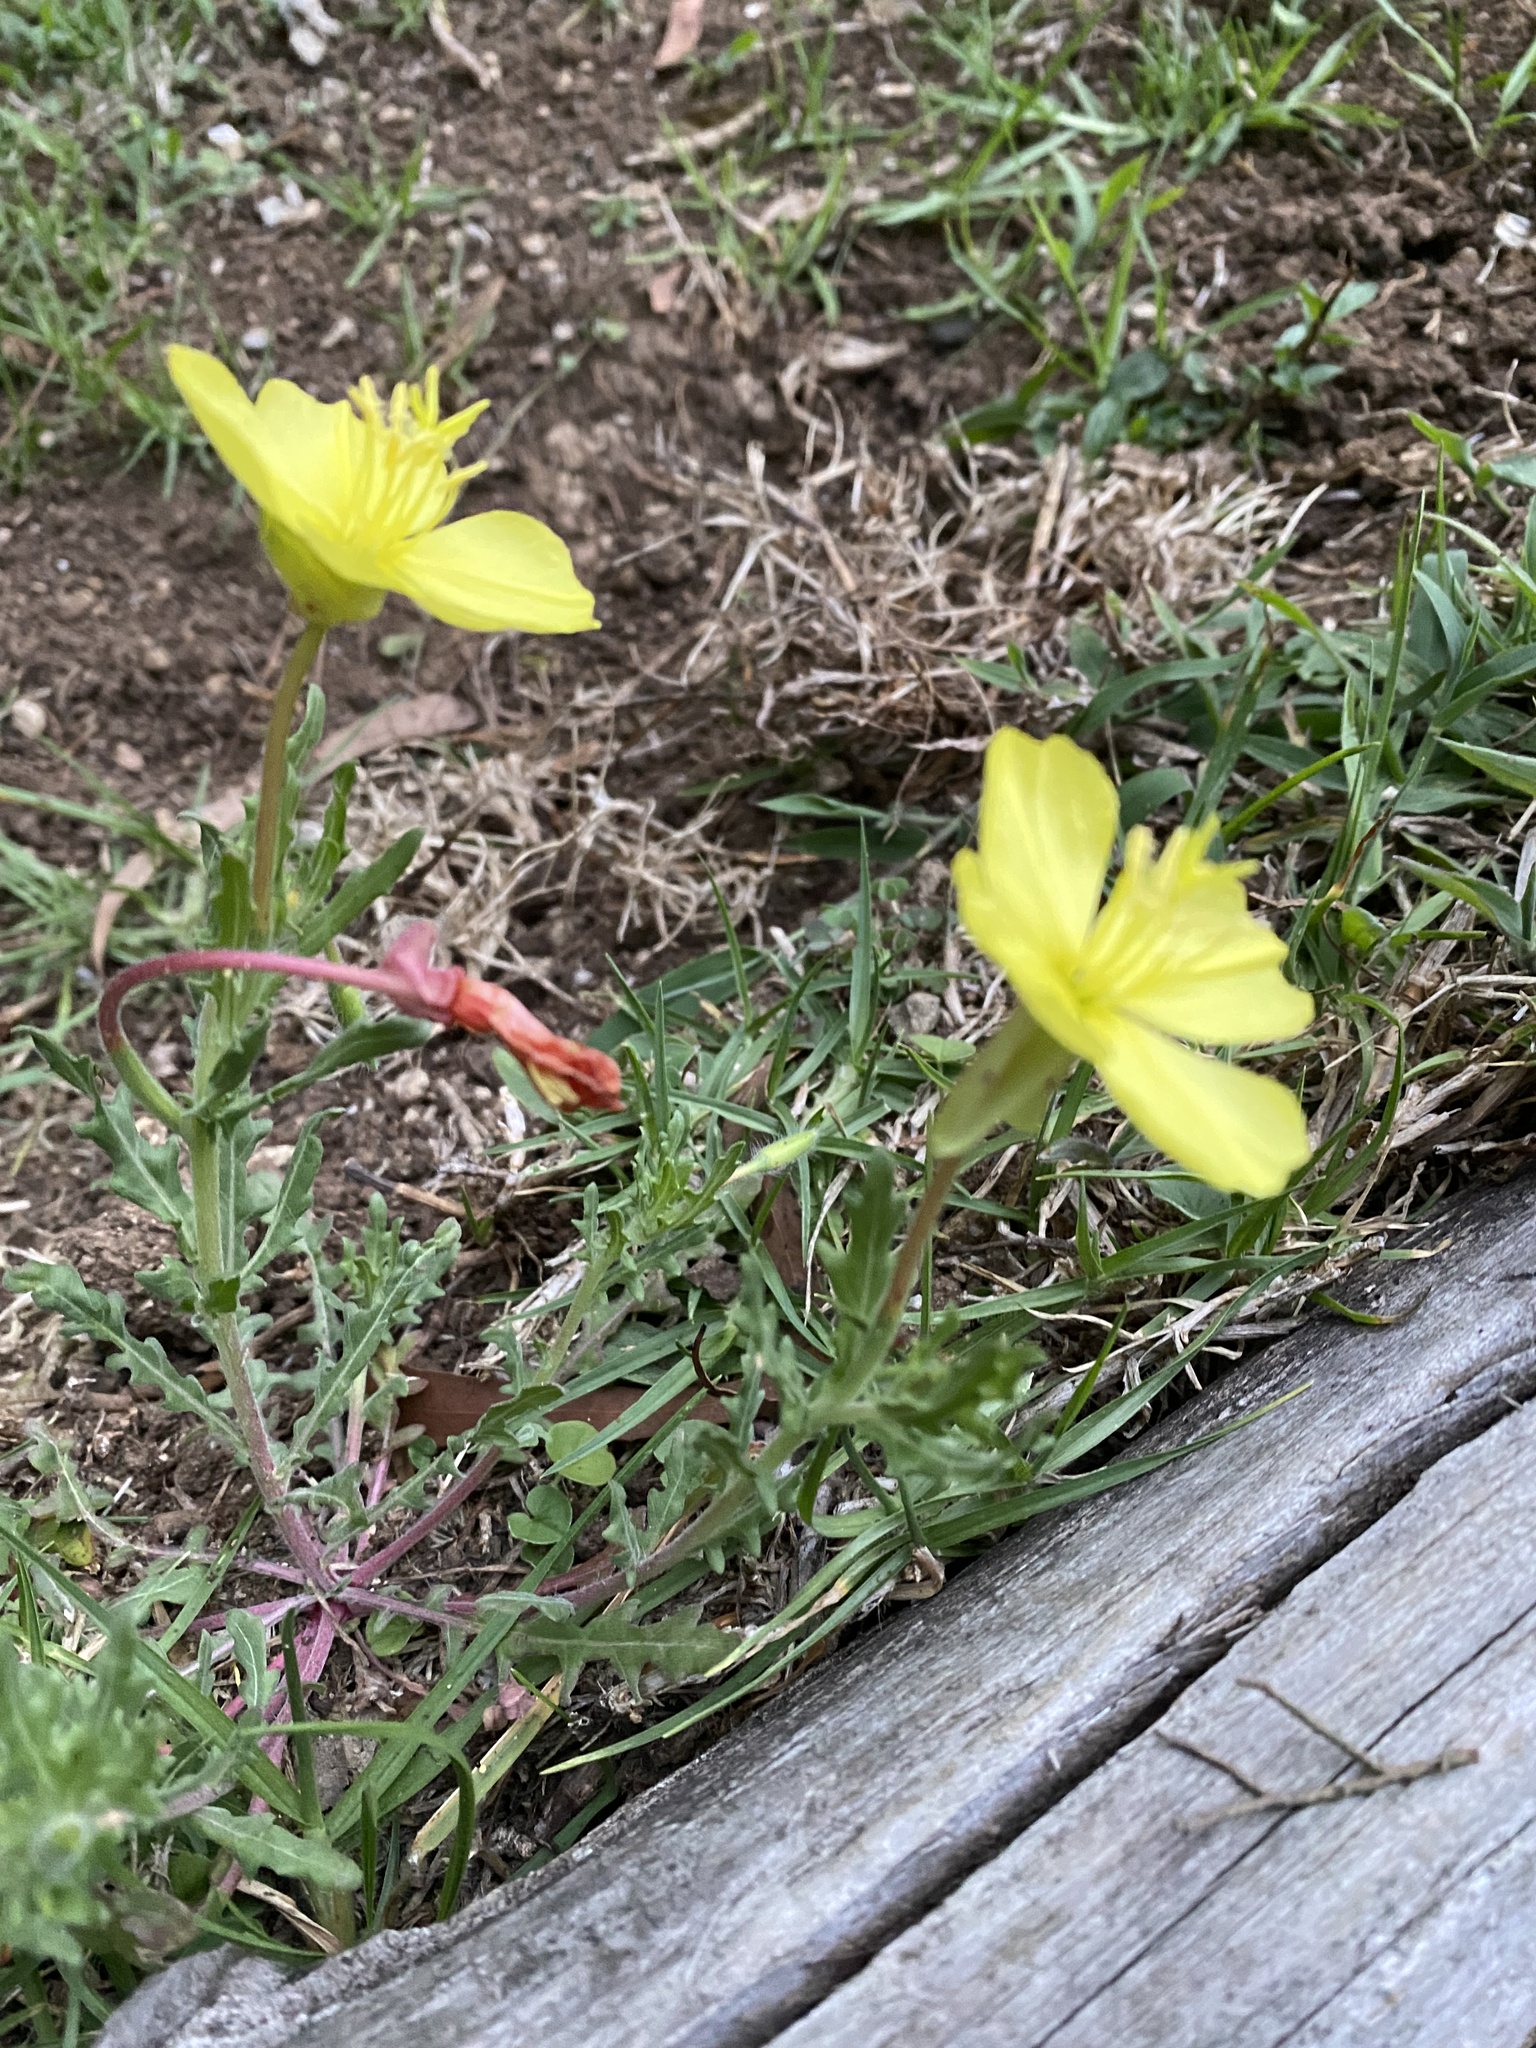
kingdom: Plantae
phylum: Tracheophyta
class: Magnoliopsida
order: Myrtales
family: Onagraceae
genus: Oenothera
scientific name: Oenothera flava
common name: Long-tubed evening-primrose
